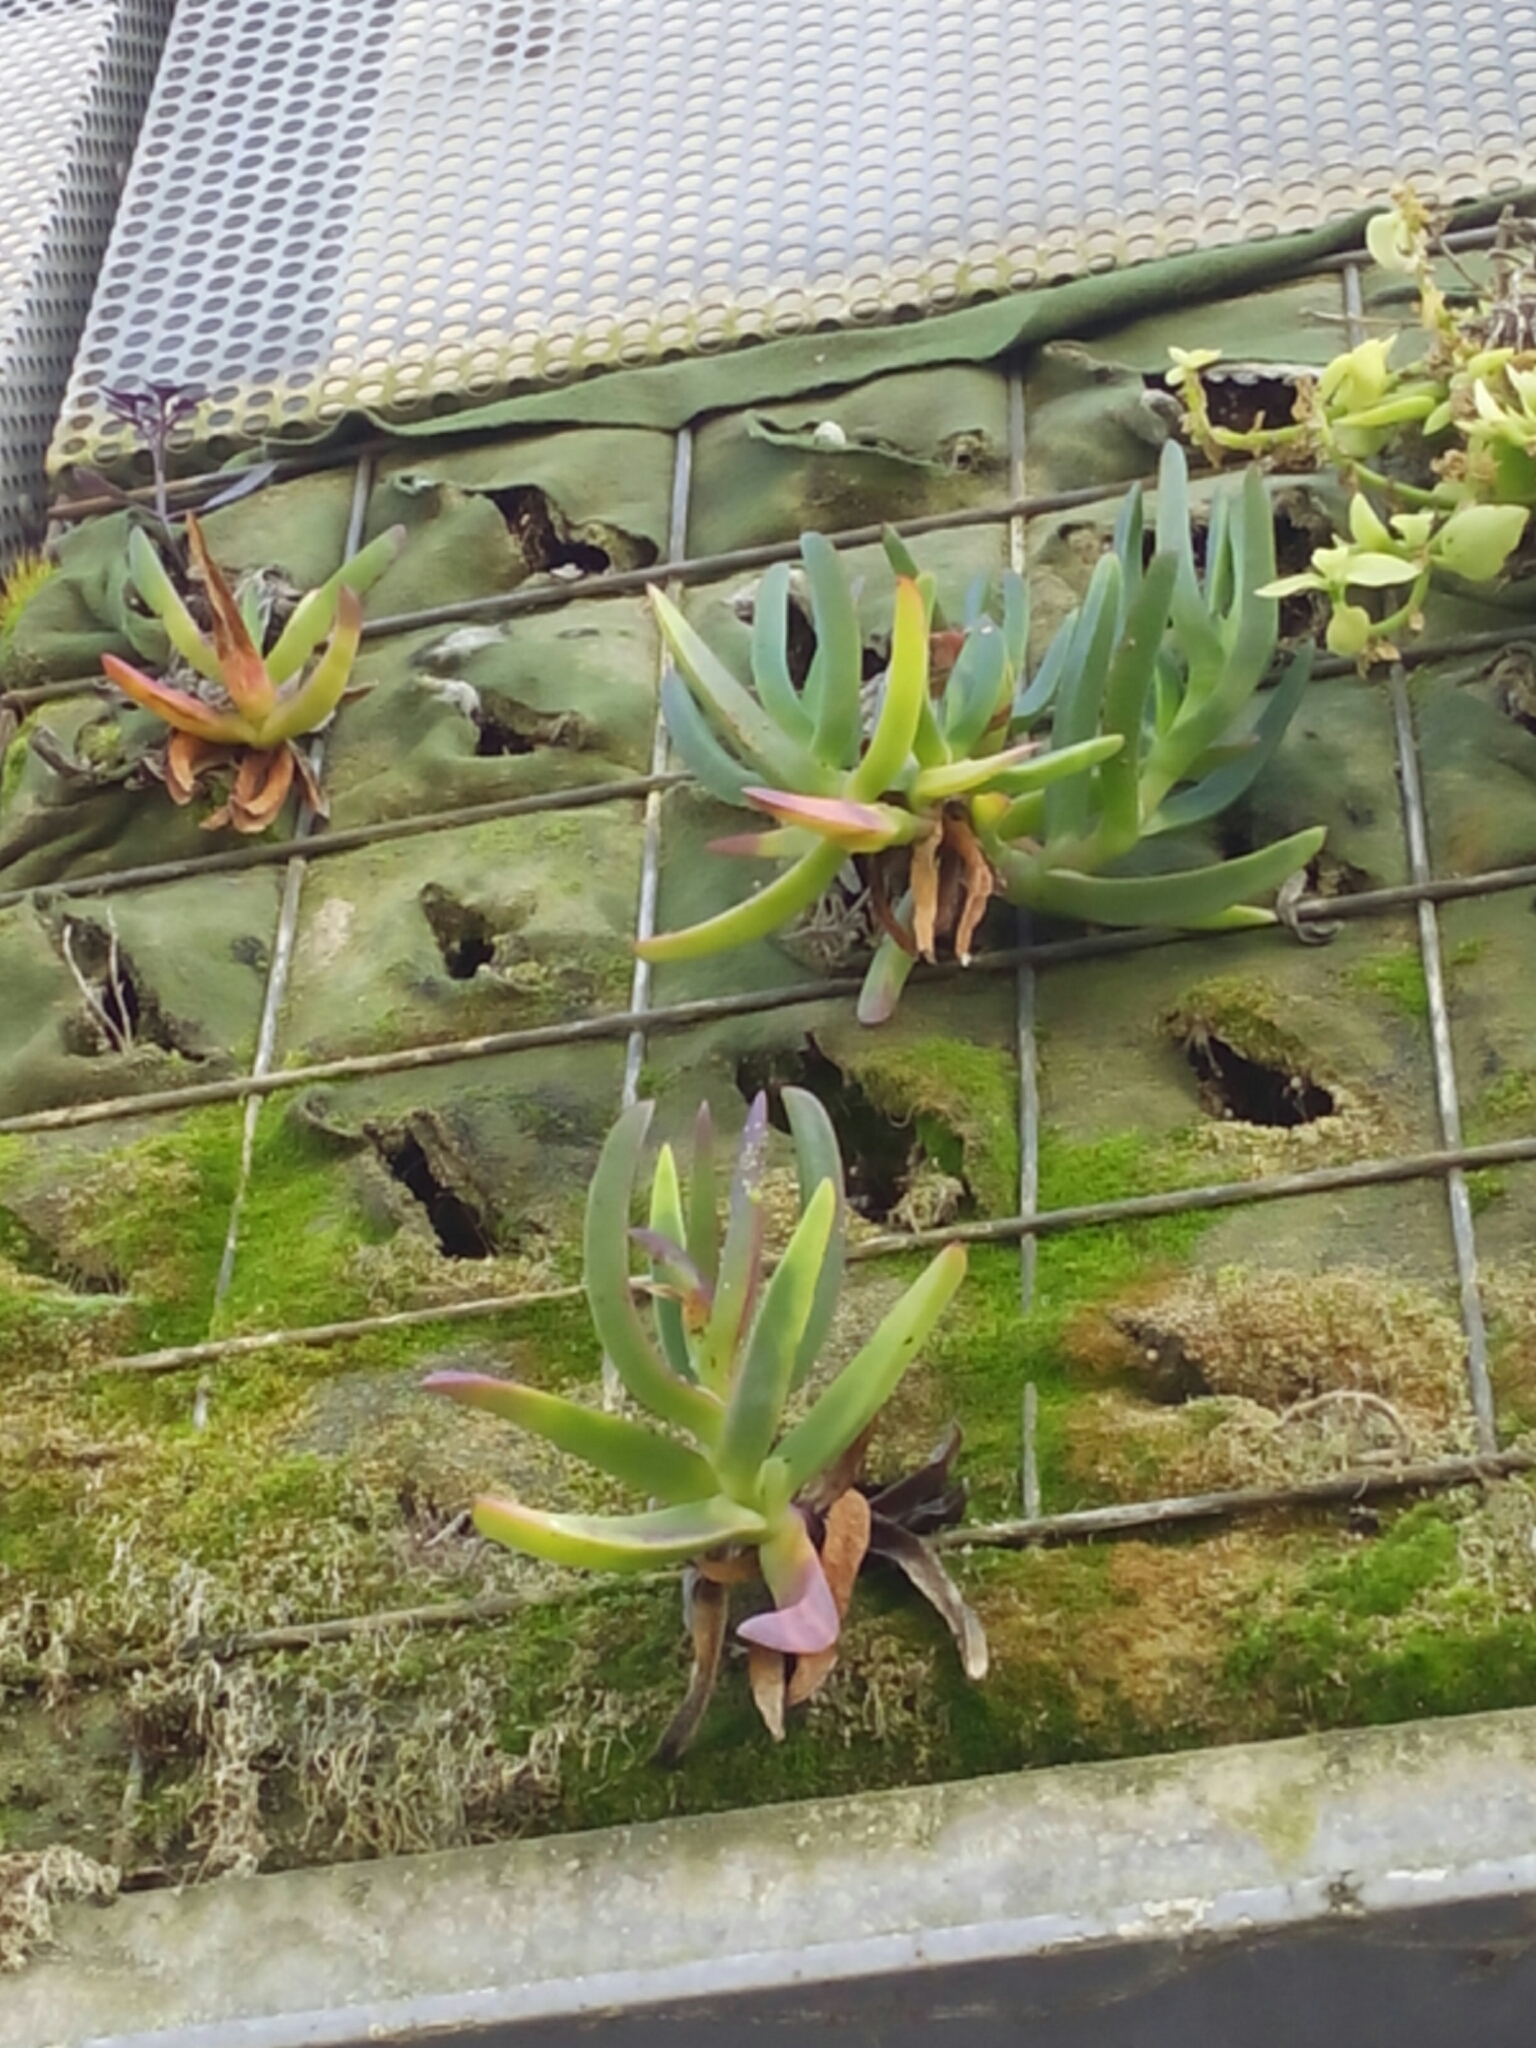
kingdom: Plantae
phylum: Tracheophyta
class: Magnoliopsida
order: Caryophyllales
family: Aizoaceae
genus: Carpobrotus
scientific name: Carpobrotus edulis
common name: Hottentot-fig
